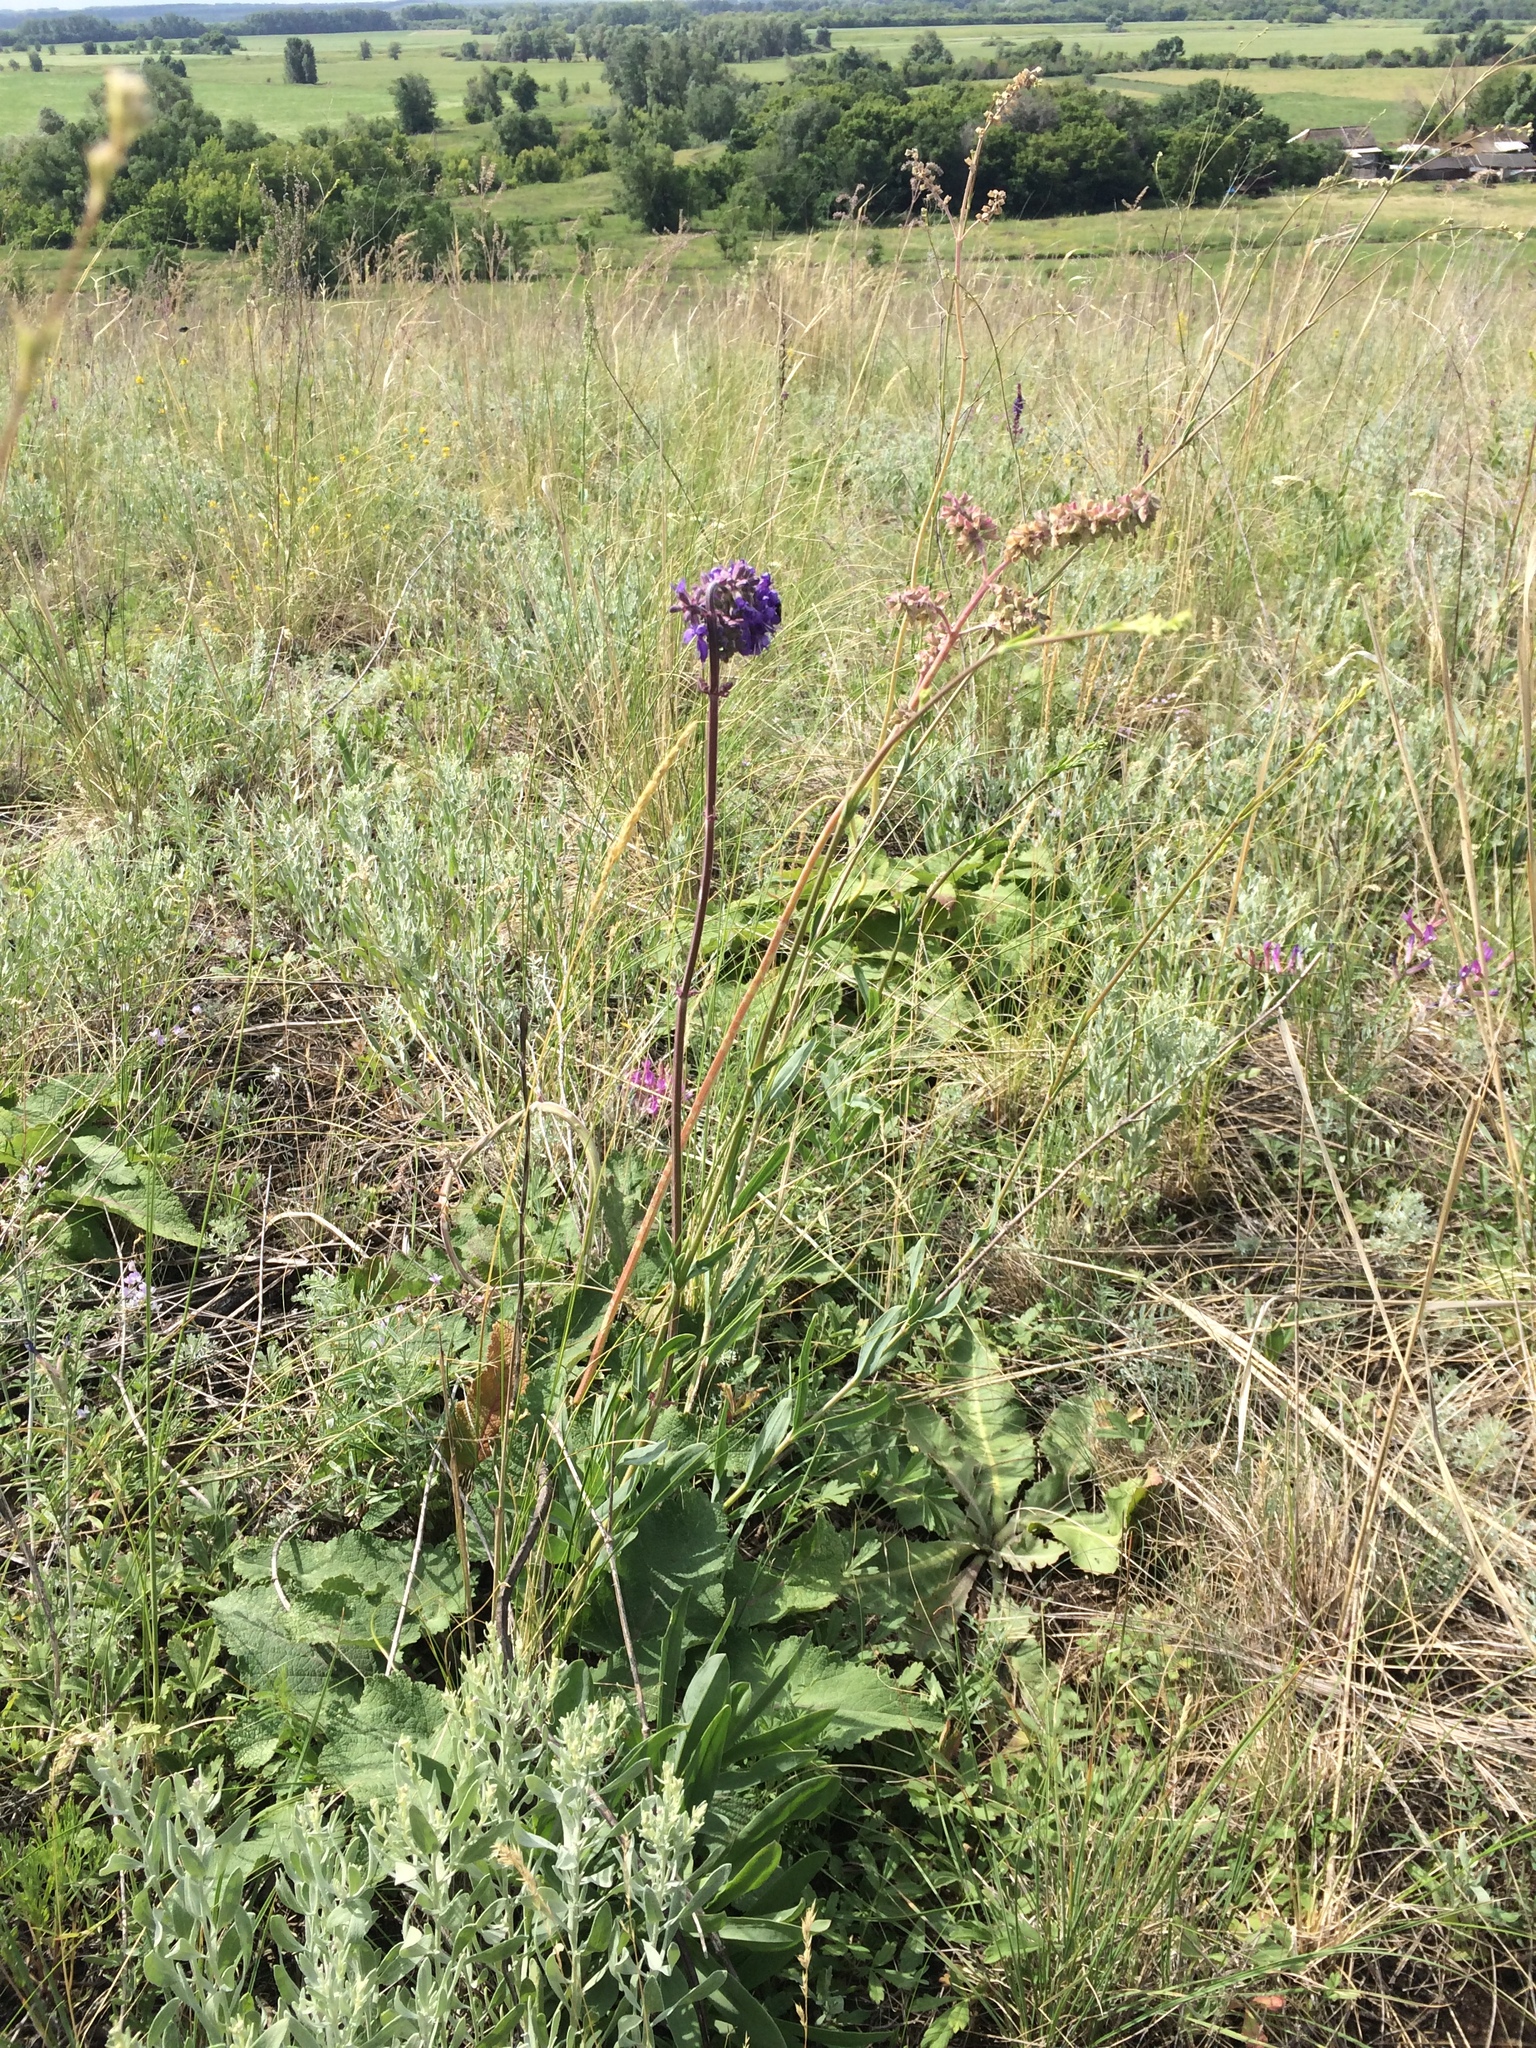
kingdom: Plantae
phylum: Tracheophyta
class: Magnoliopsida
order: Lamiales
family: Lamiaceae
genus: Salvia
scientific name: Salvia nutans
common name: Nodding sage
